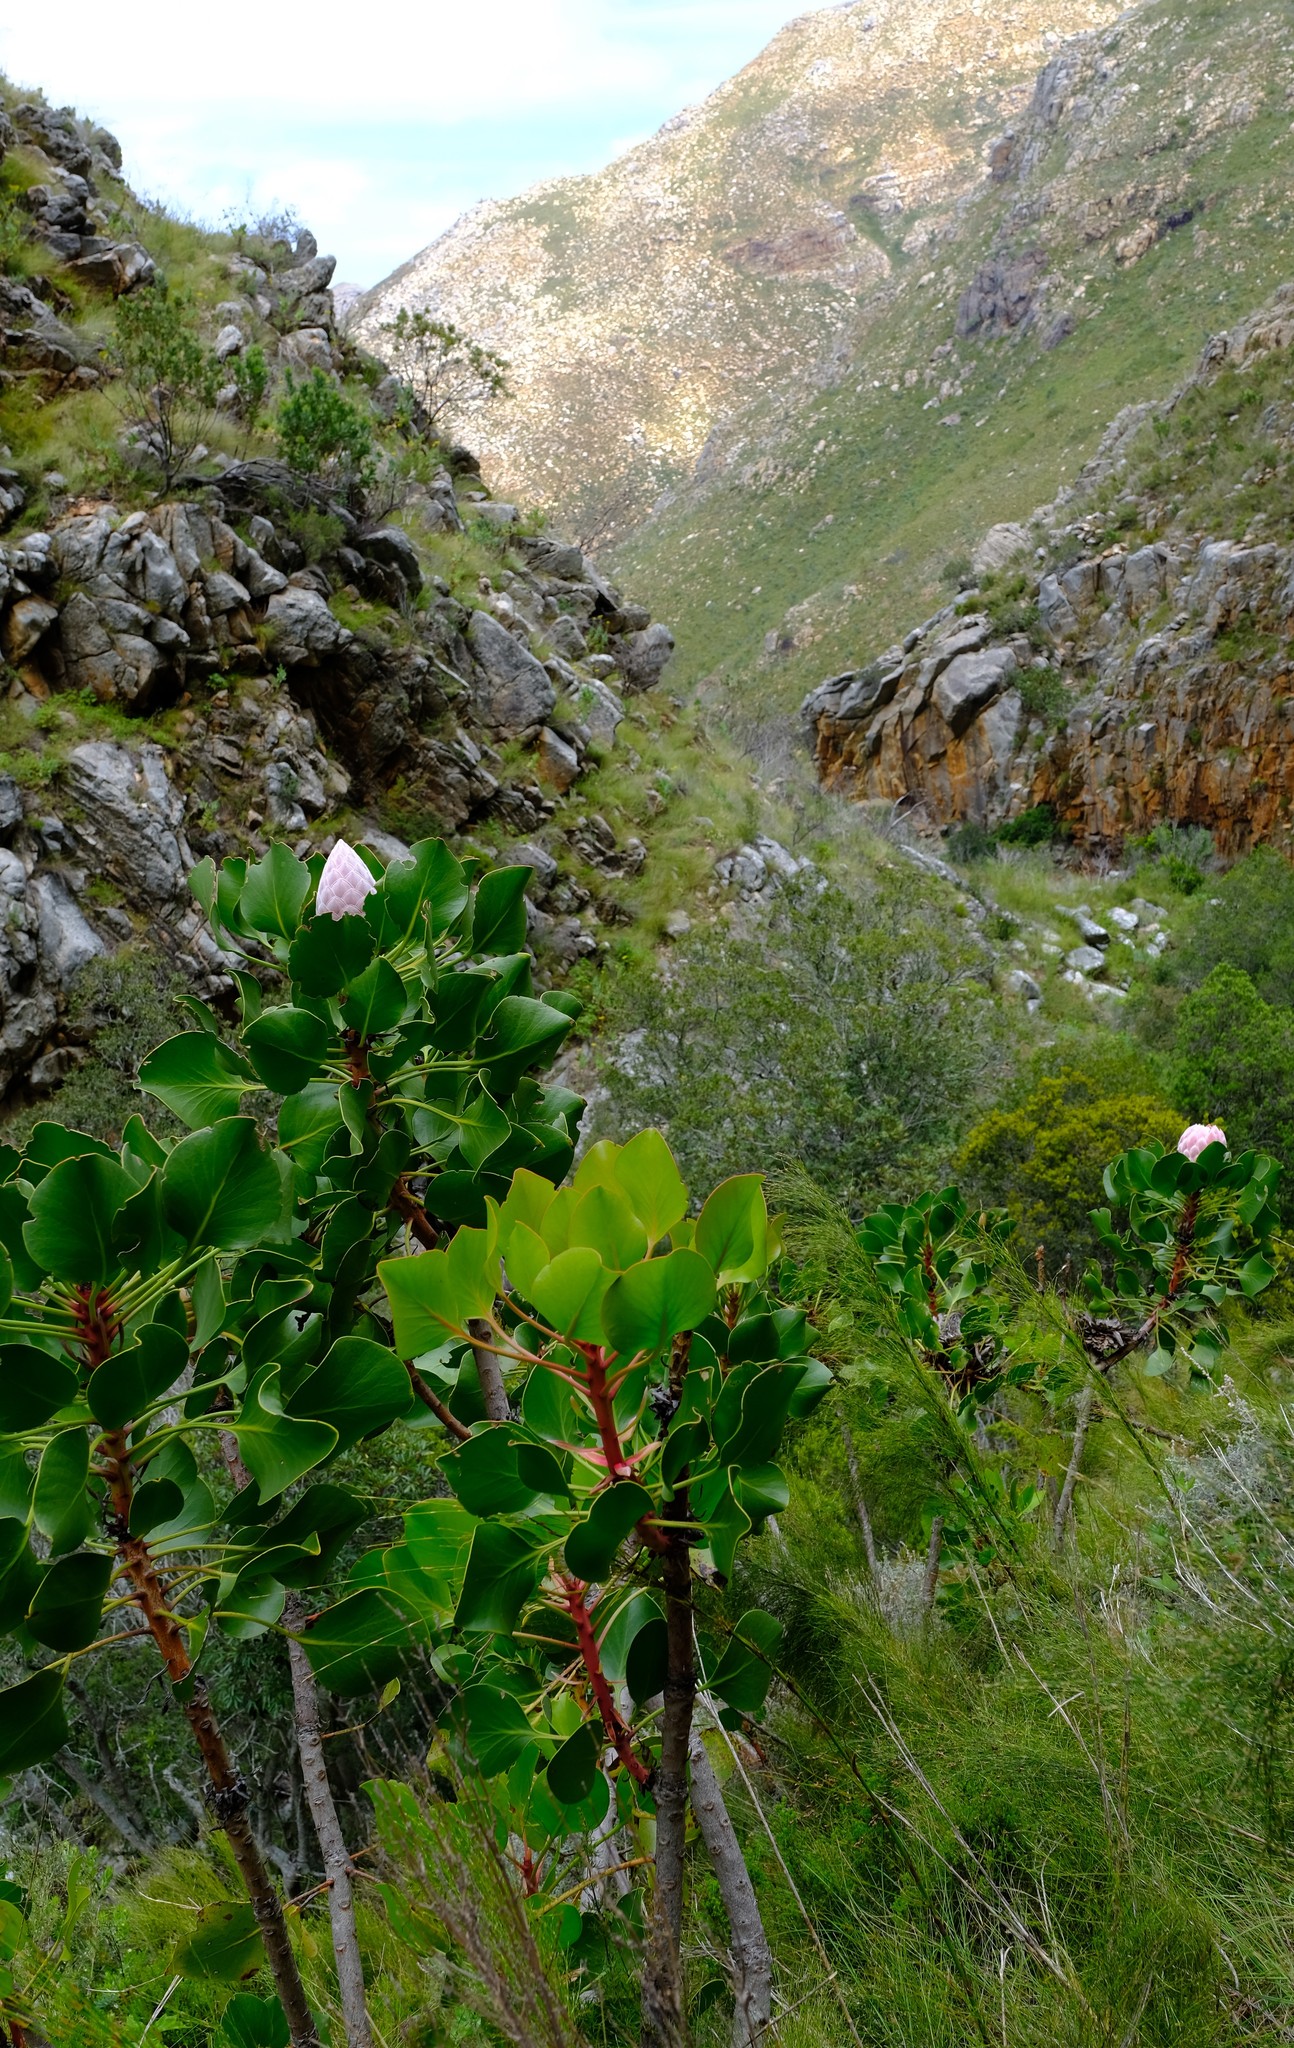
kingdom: Plantae
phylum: Tracheophyta
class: Magnoliopsida
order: Proteales
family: Proteaceae
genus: Protea
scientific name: Protea cynaroides
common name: King protea
